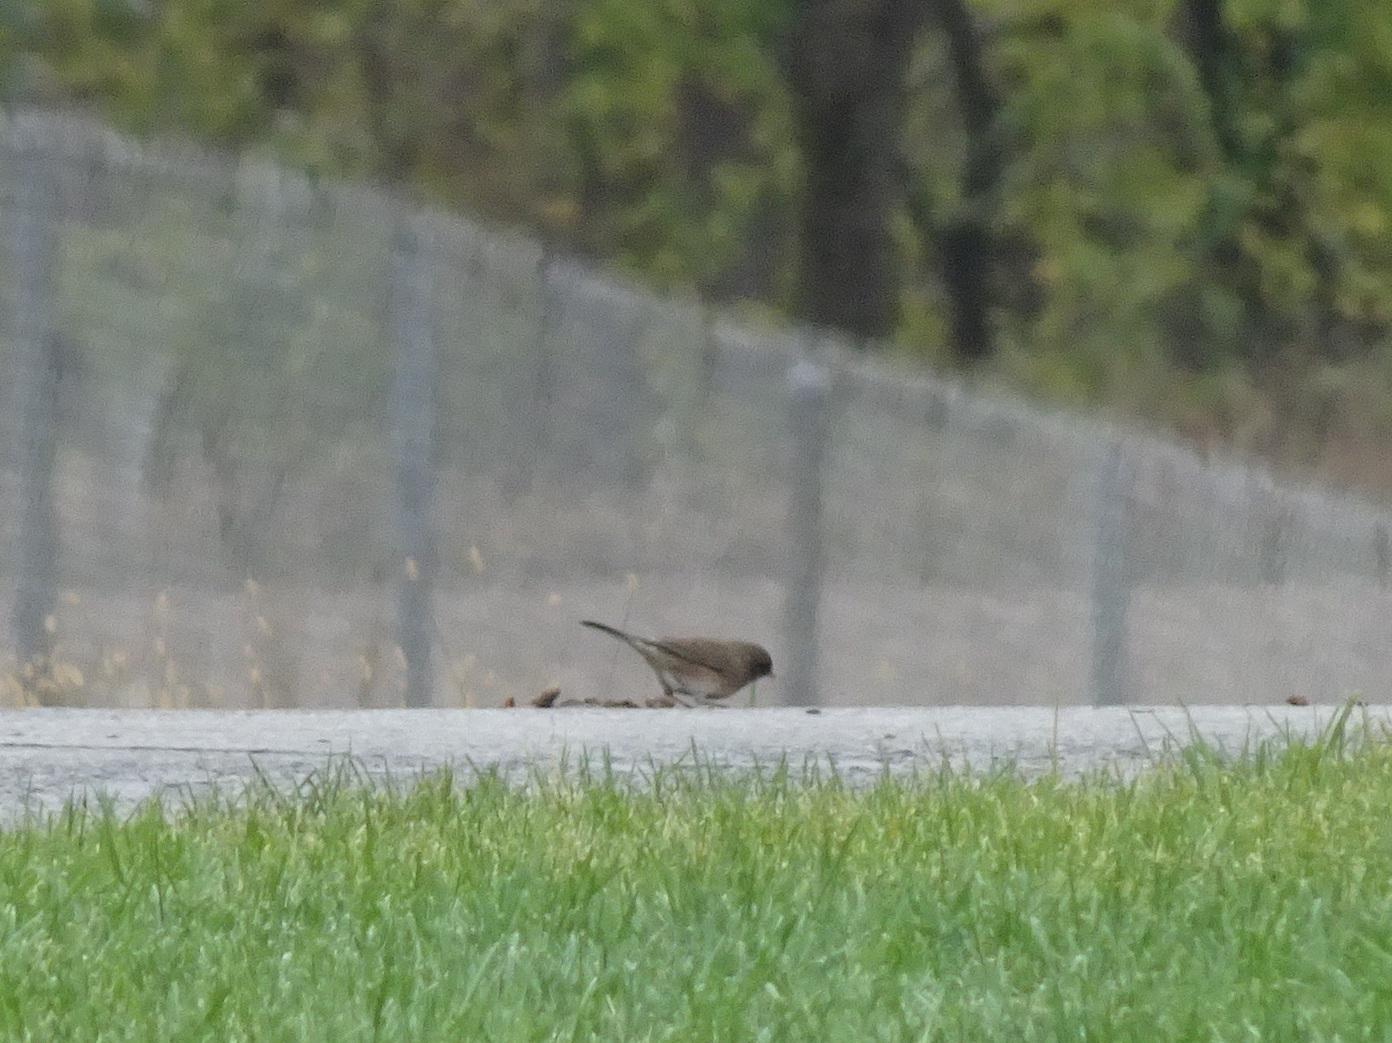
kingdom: Animalia
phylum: Chordata
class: Aves
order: Passeriformes
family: Passerellidae
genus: Junco
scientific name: Junco hyemalis
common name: Dark-eyed junco
